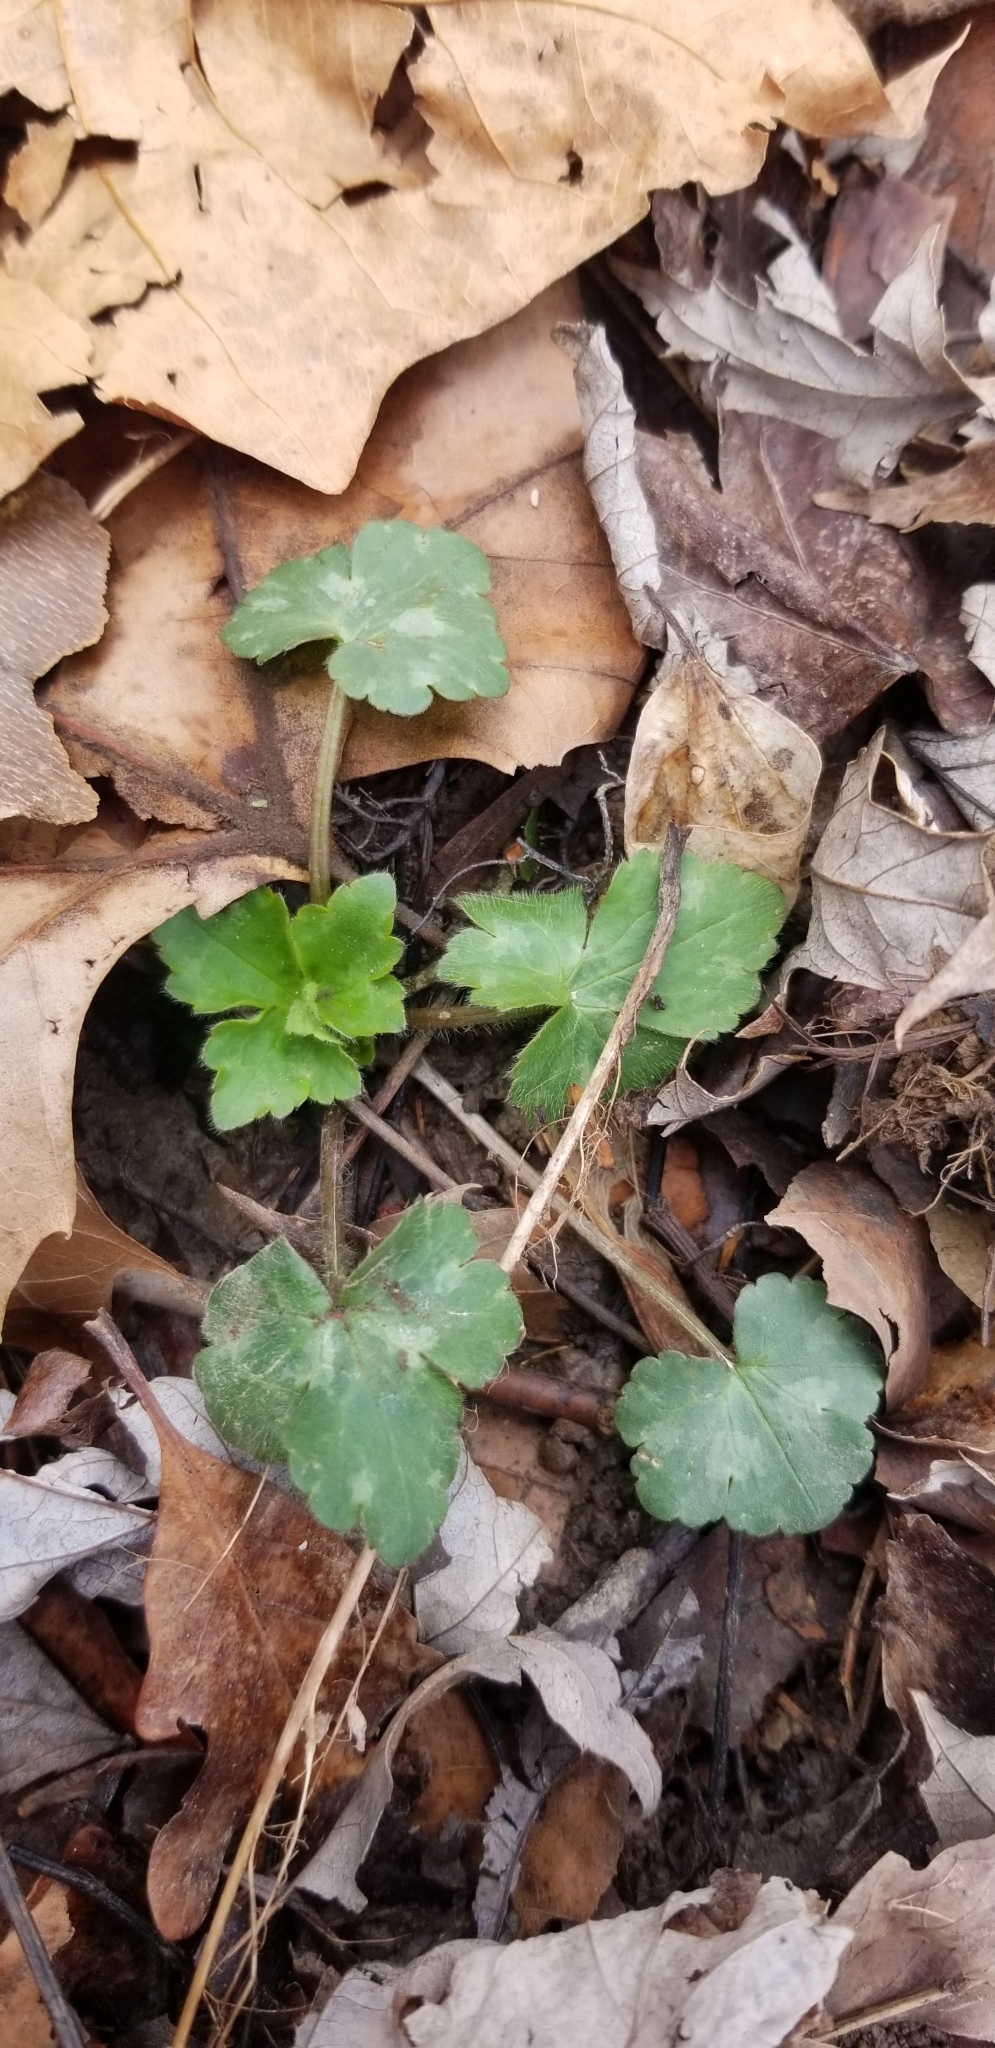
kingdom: Plantae
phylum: Tracheophyta
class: Magnoliopsida
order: Ranunculales
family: Ranunculaceae
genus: Ranunculus
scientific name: Ranunculus recurvatus
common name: Blisterwort
